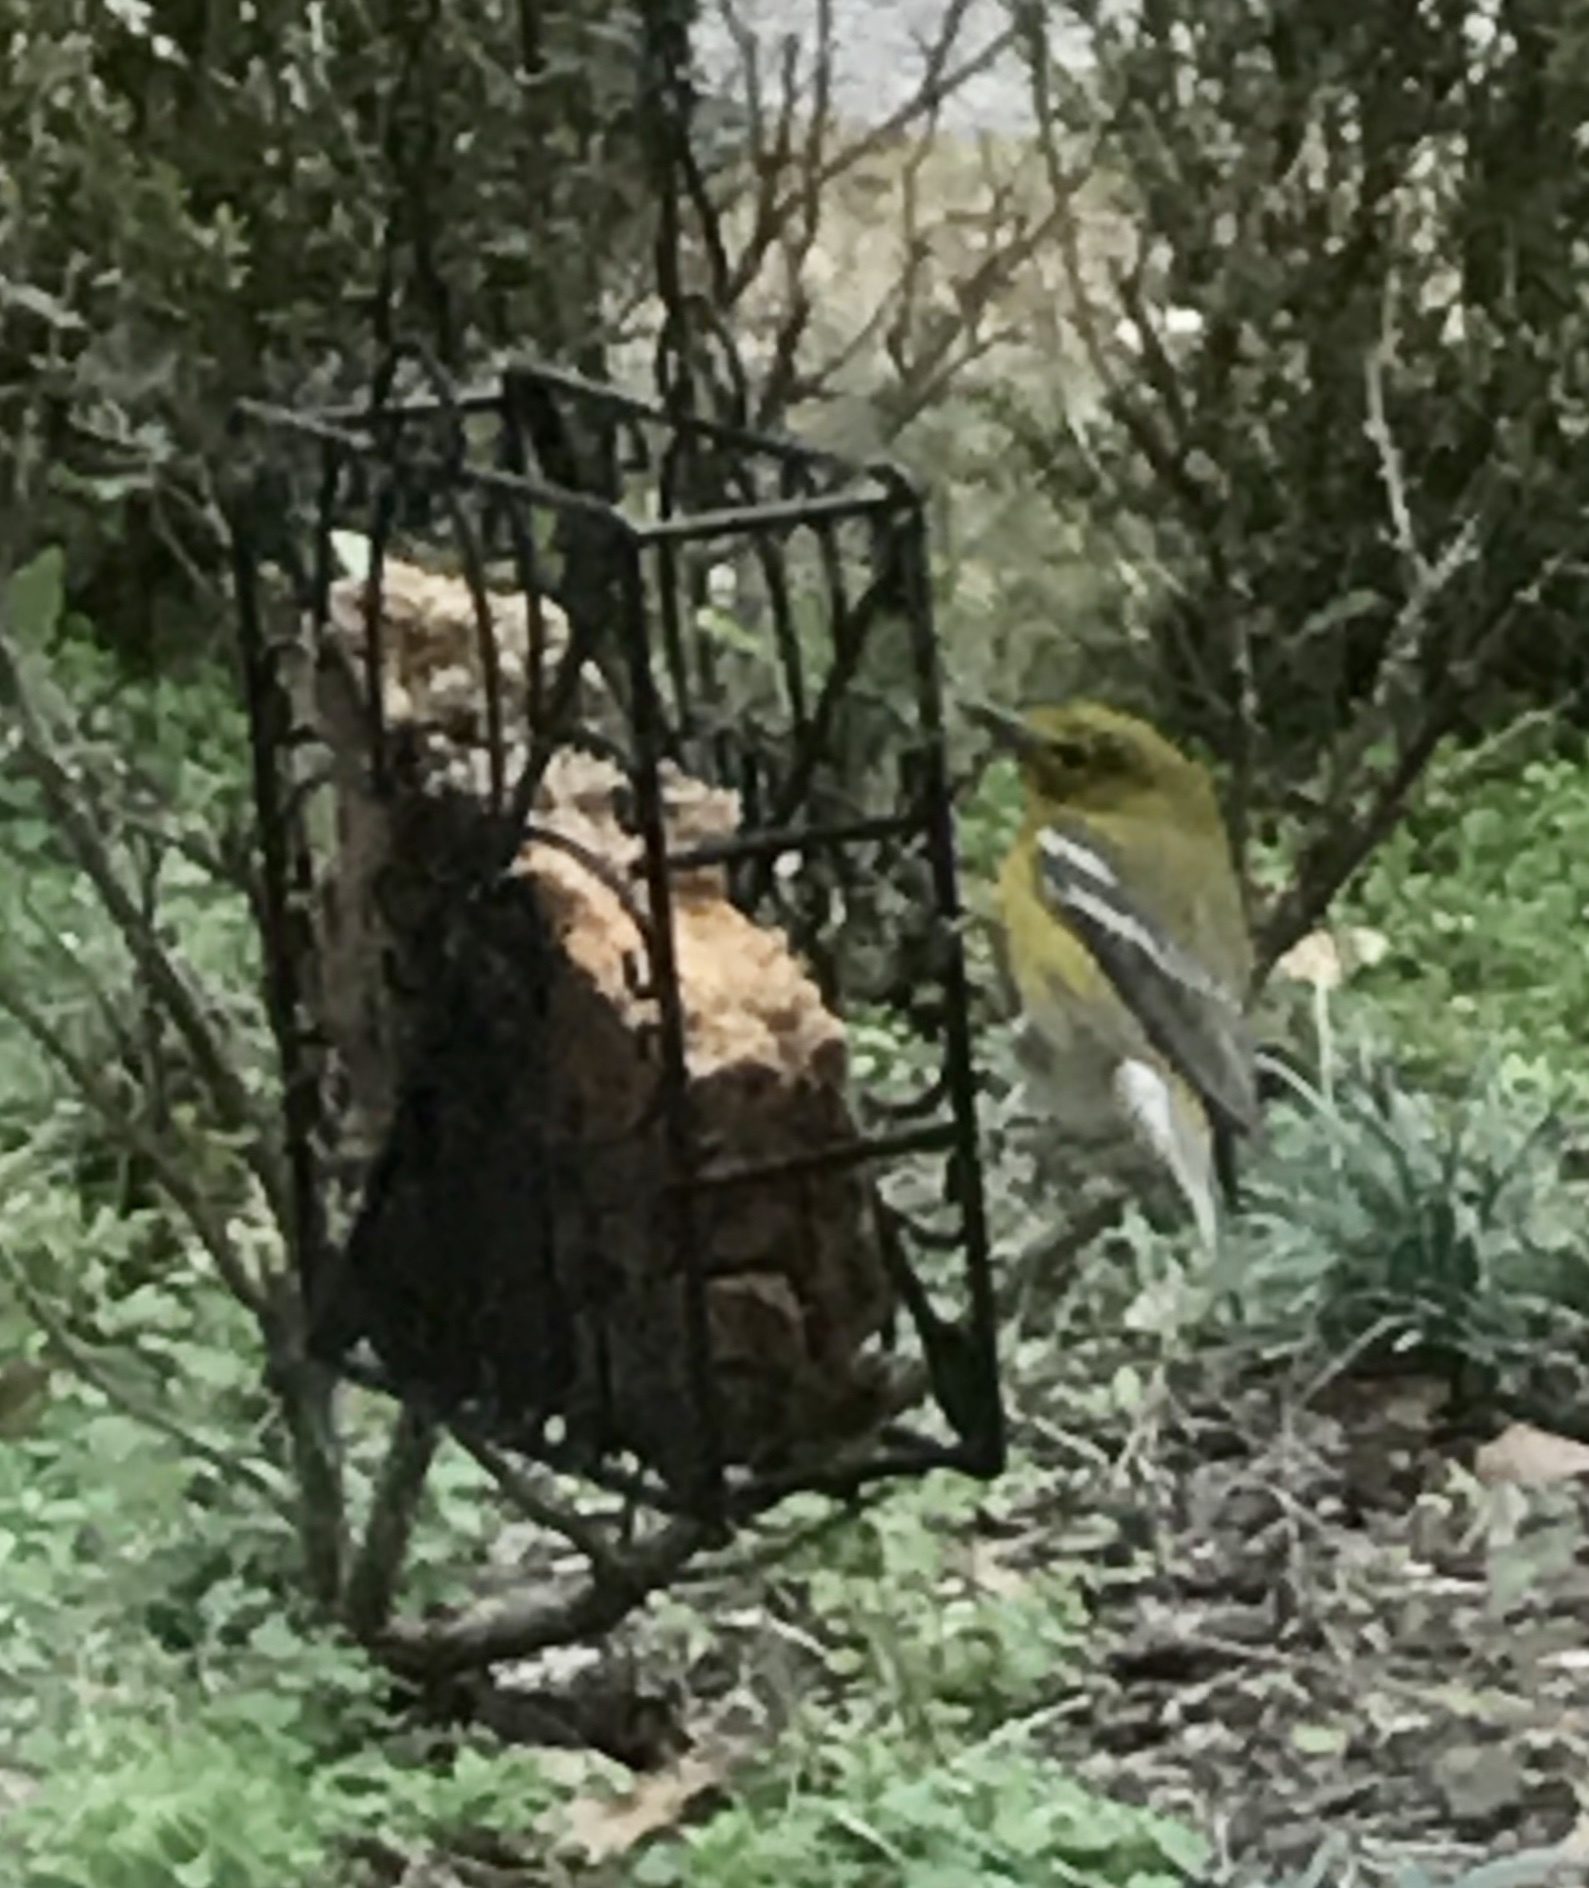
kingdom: Animalia
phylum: Chordata
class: Aves
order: Passeriformes
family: Parulidae
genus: Setophaga
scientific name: Setophaga pinus
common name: Pine warbler
